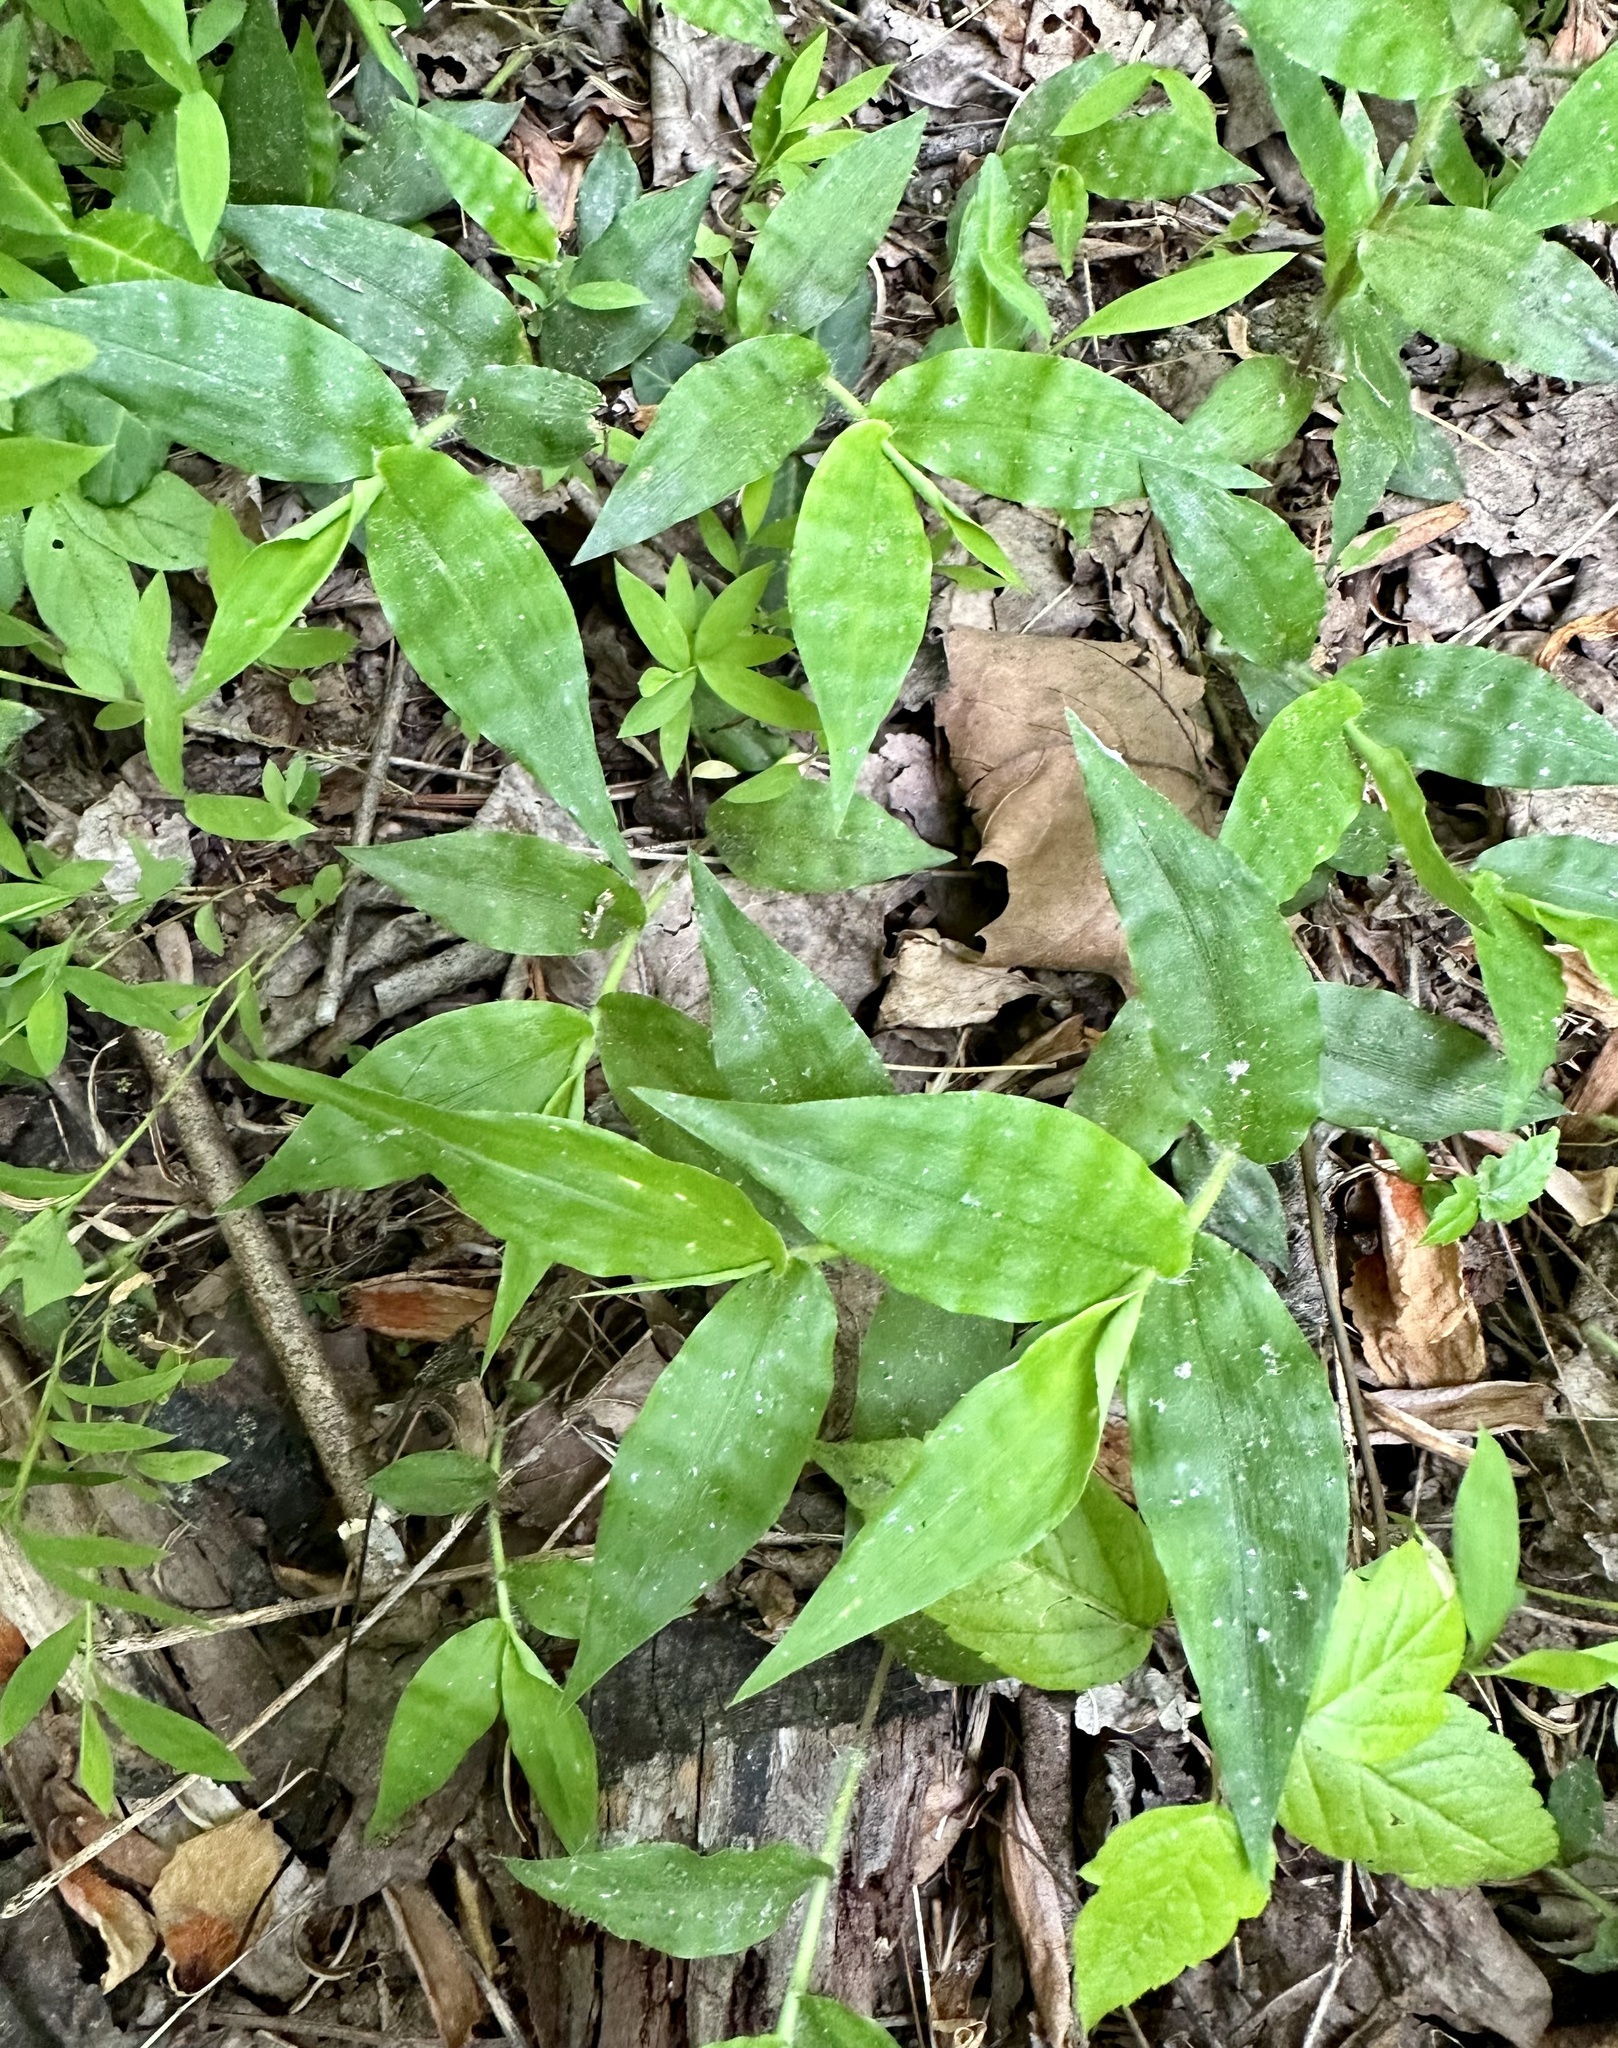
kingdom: Plantae
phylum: Tracheophyta
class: Liliopsida
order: Poales
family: Poaceae
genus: Oplismenus
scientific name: Oplismenus undulatifolius
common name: Wavyleaf basketgrass
